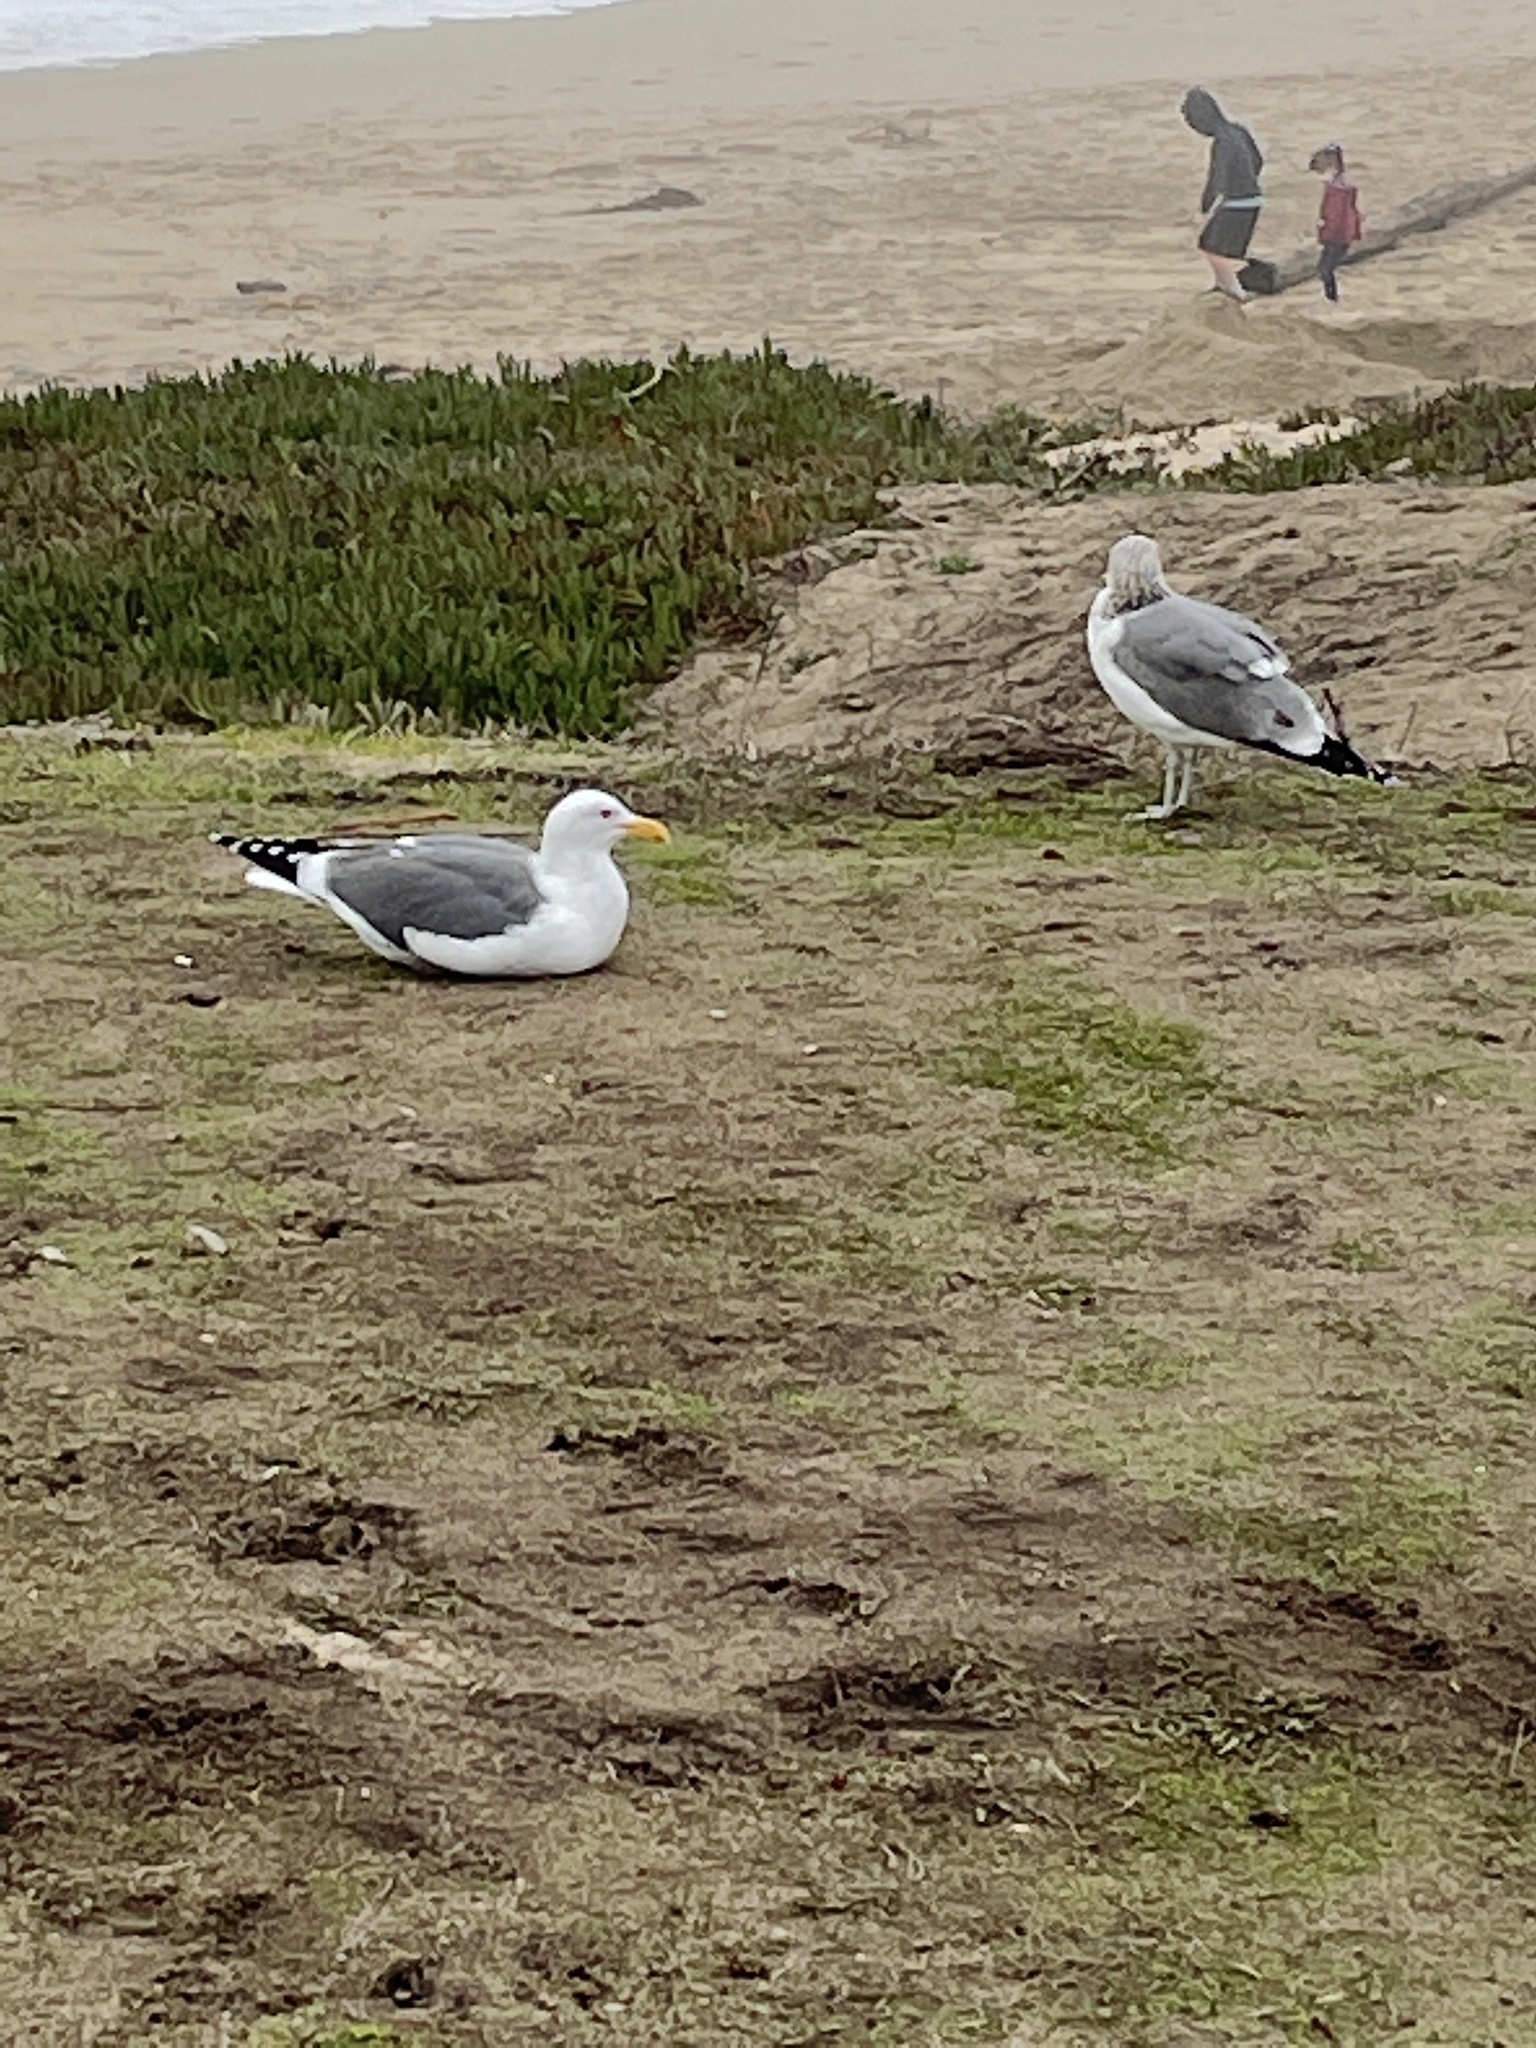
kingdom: Animalia
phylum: Chordata
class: Aves
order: Charadriiformes
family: Laridae
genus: Larus
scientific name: Larus occidentalis
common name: Western gull
